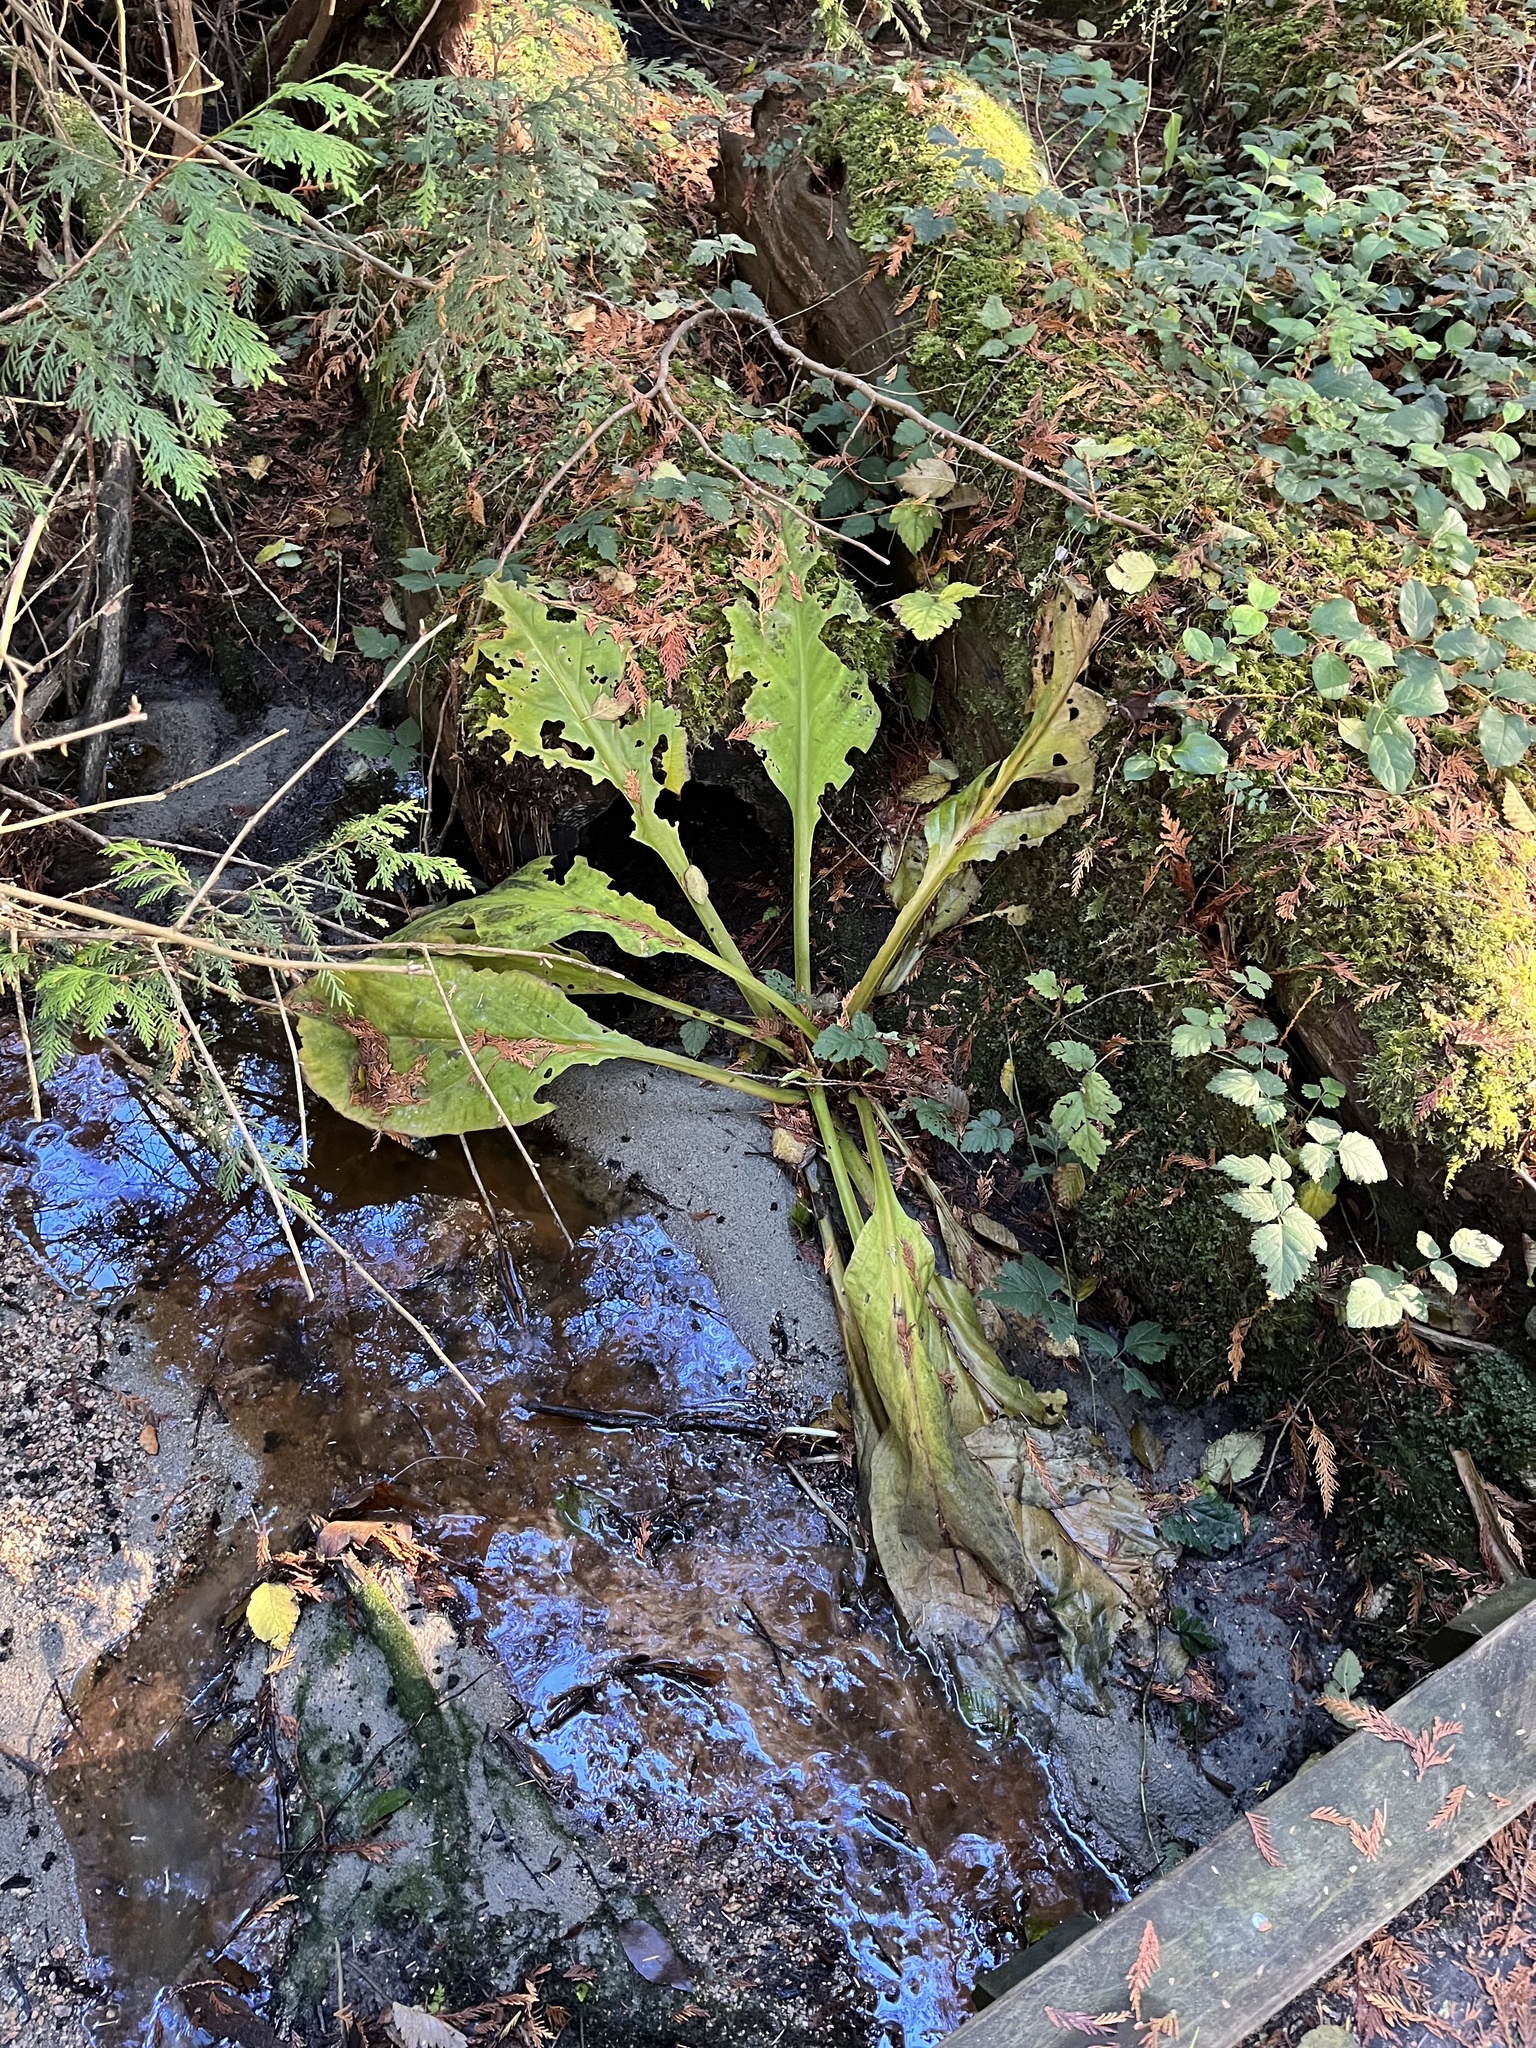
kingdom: Plantae
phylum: Tracheophyta
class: Liliopsida
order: Alismatales
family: Araceae
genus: Lysichiton
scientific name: Lysichiton americanus
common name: American skunk cabbage
